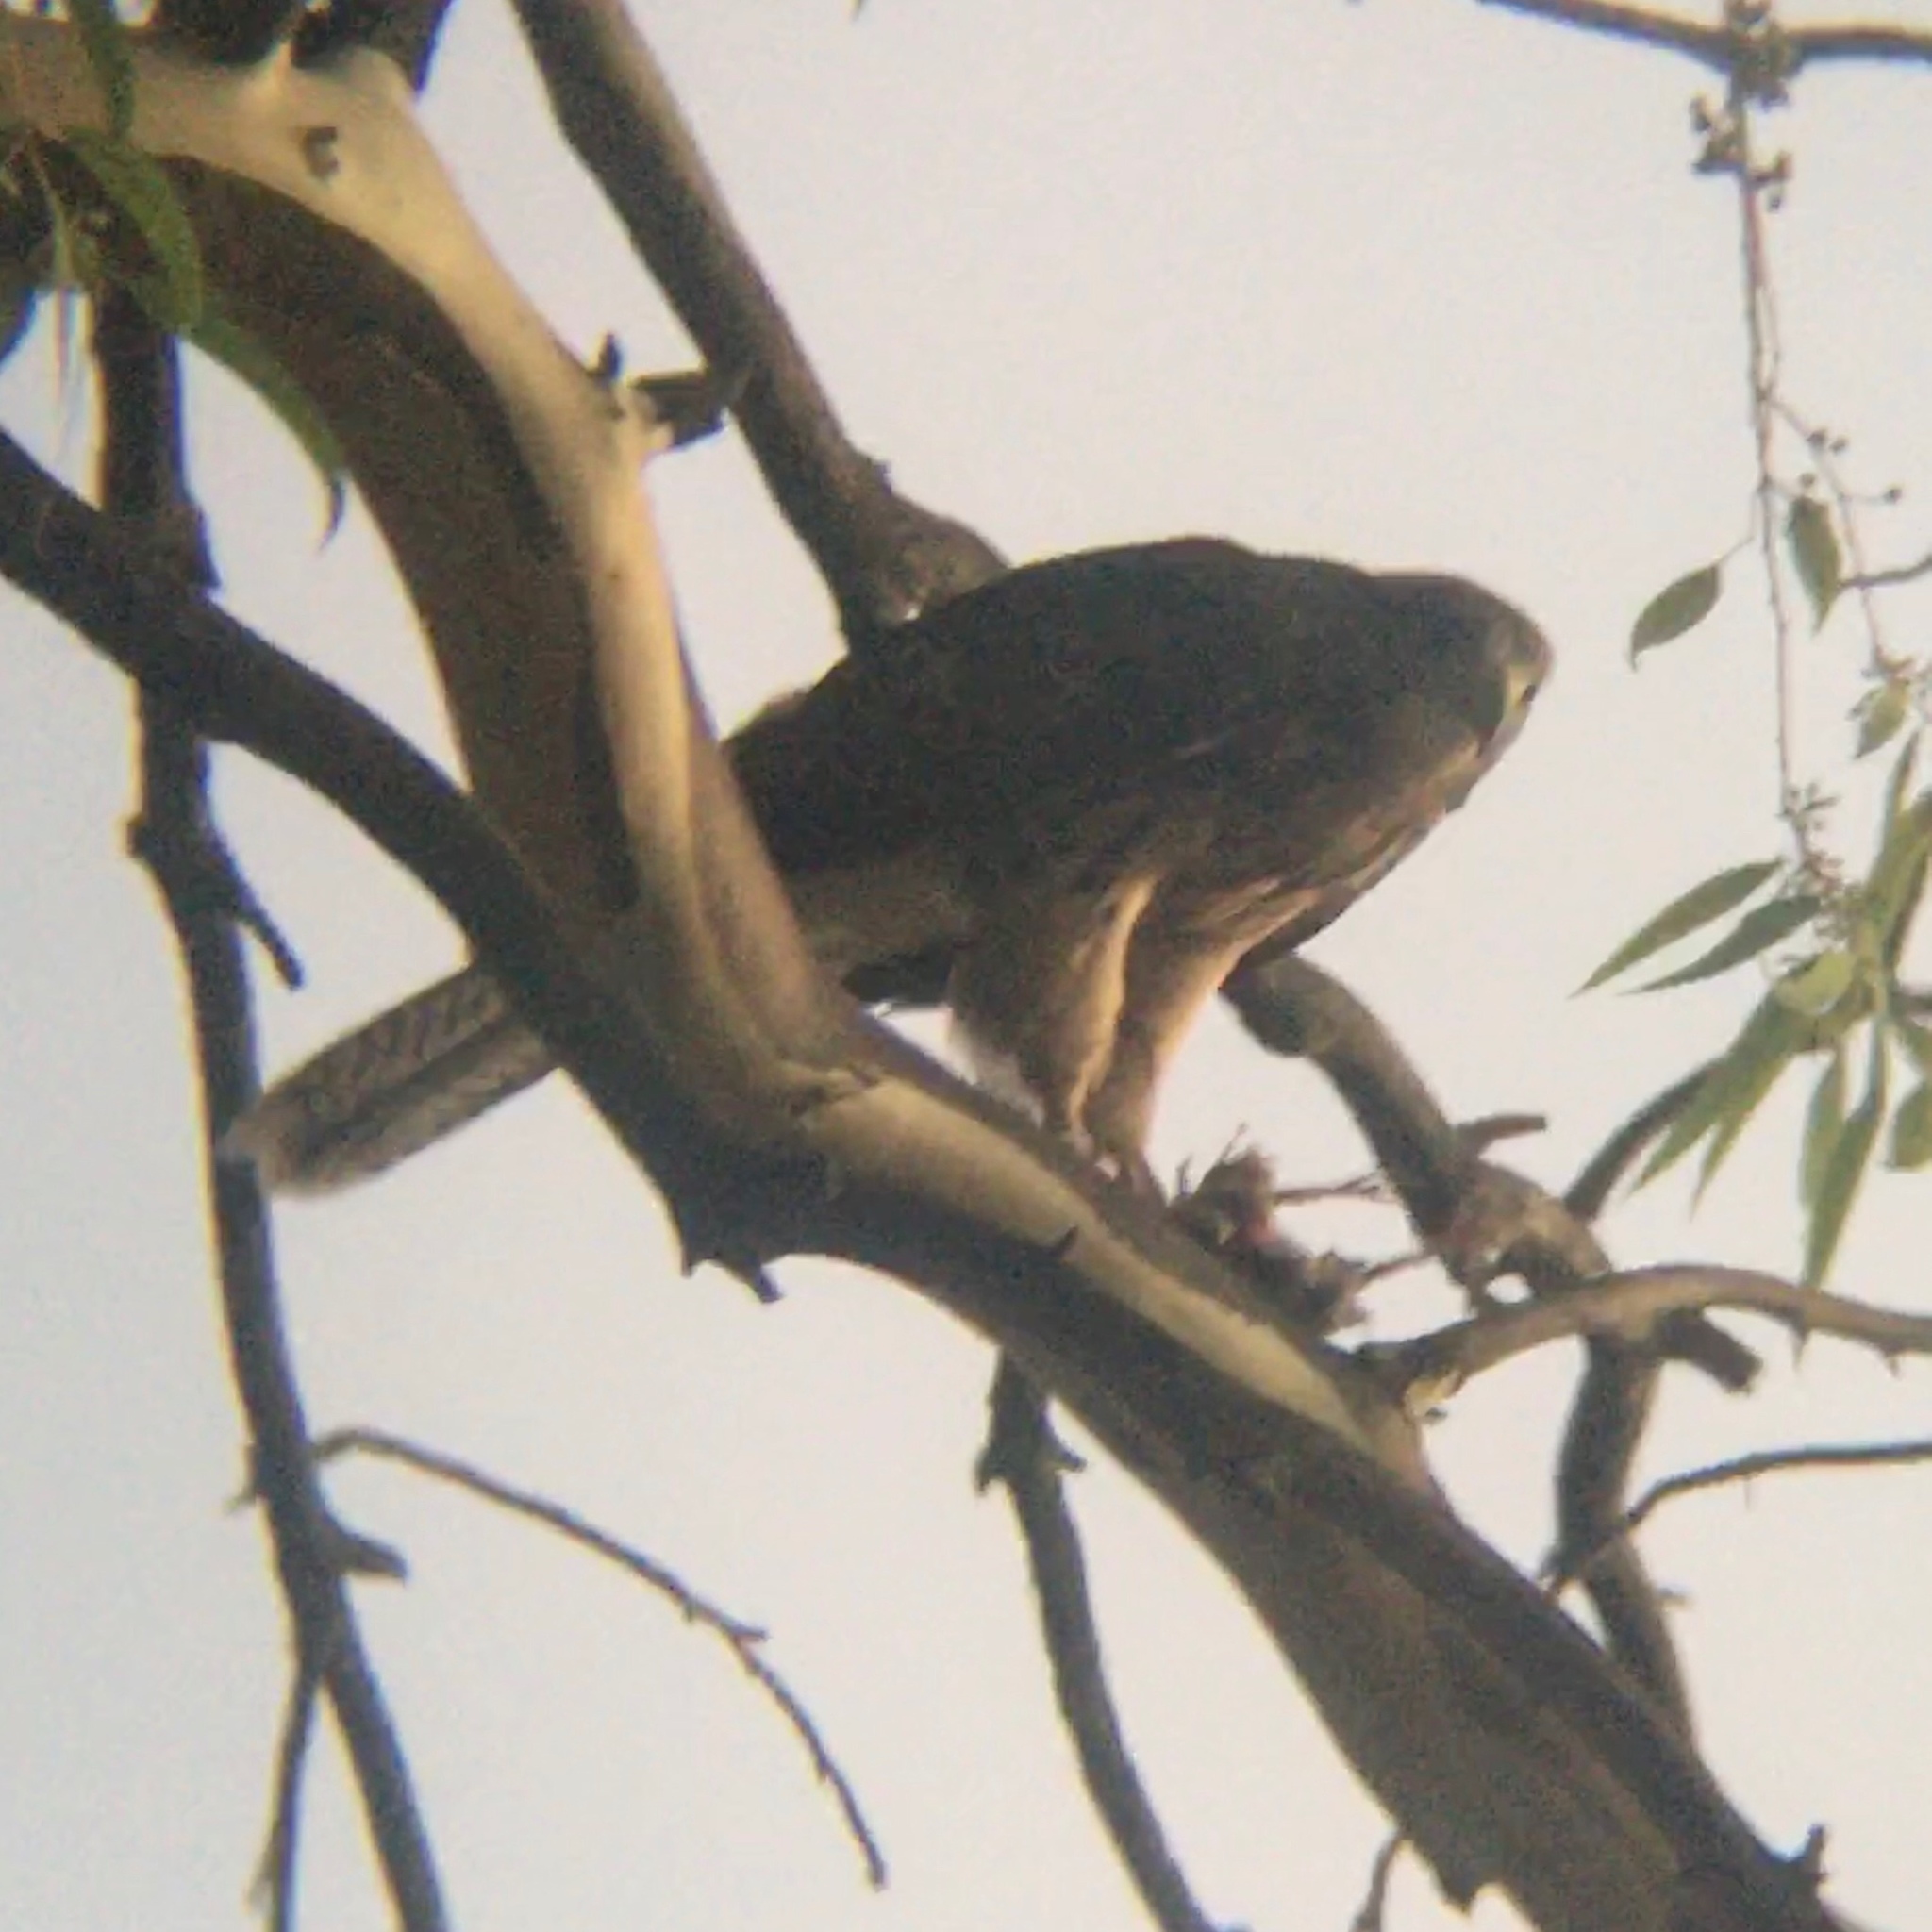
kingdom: Animalia
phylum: Chordata
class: Aves
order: Accipitriformes
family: Accipitridae
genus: Parabuteo
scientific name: Parabuteo unicinctus
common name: Harris's hawk
